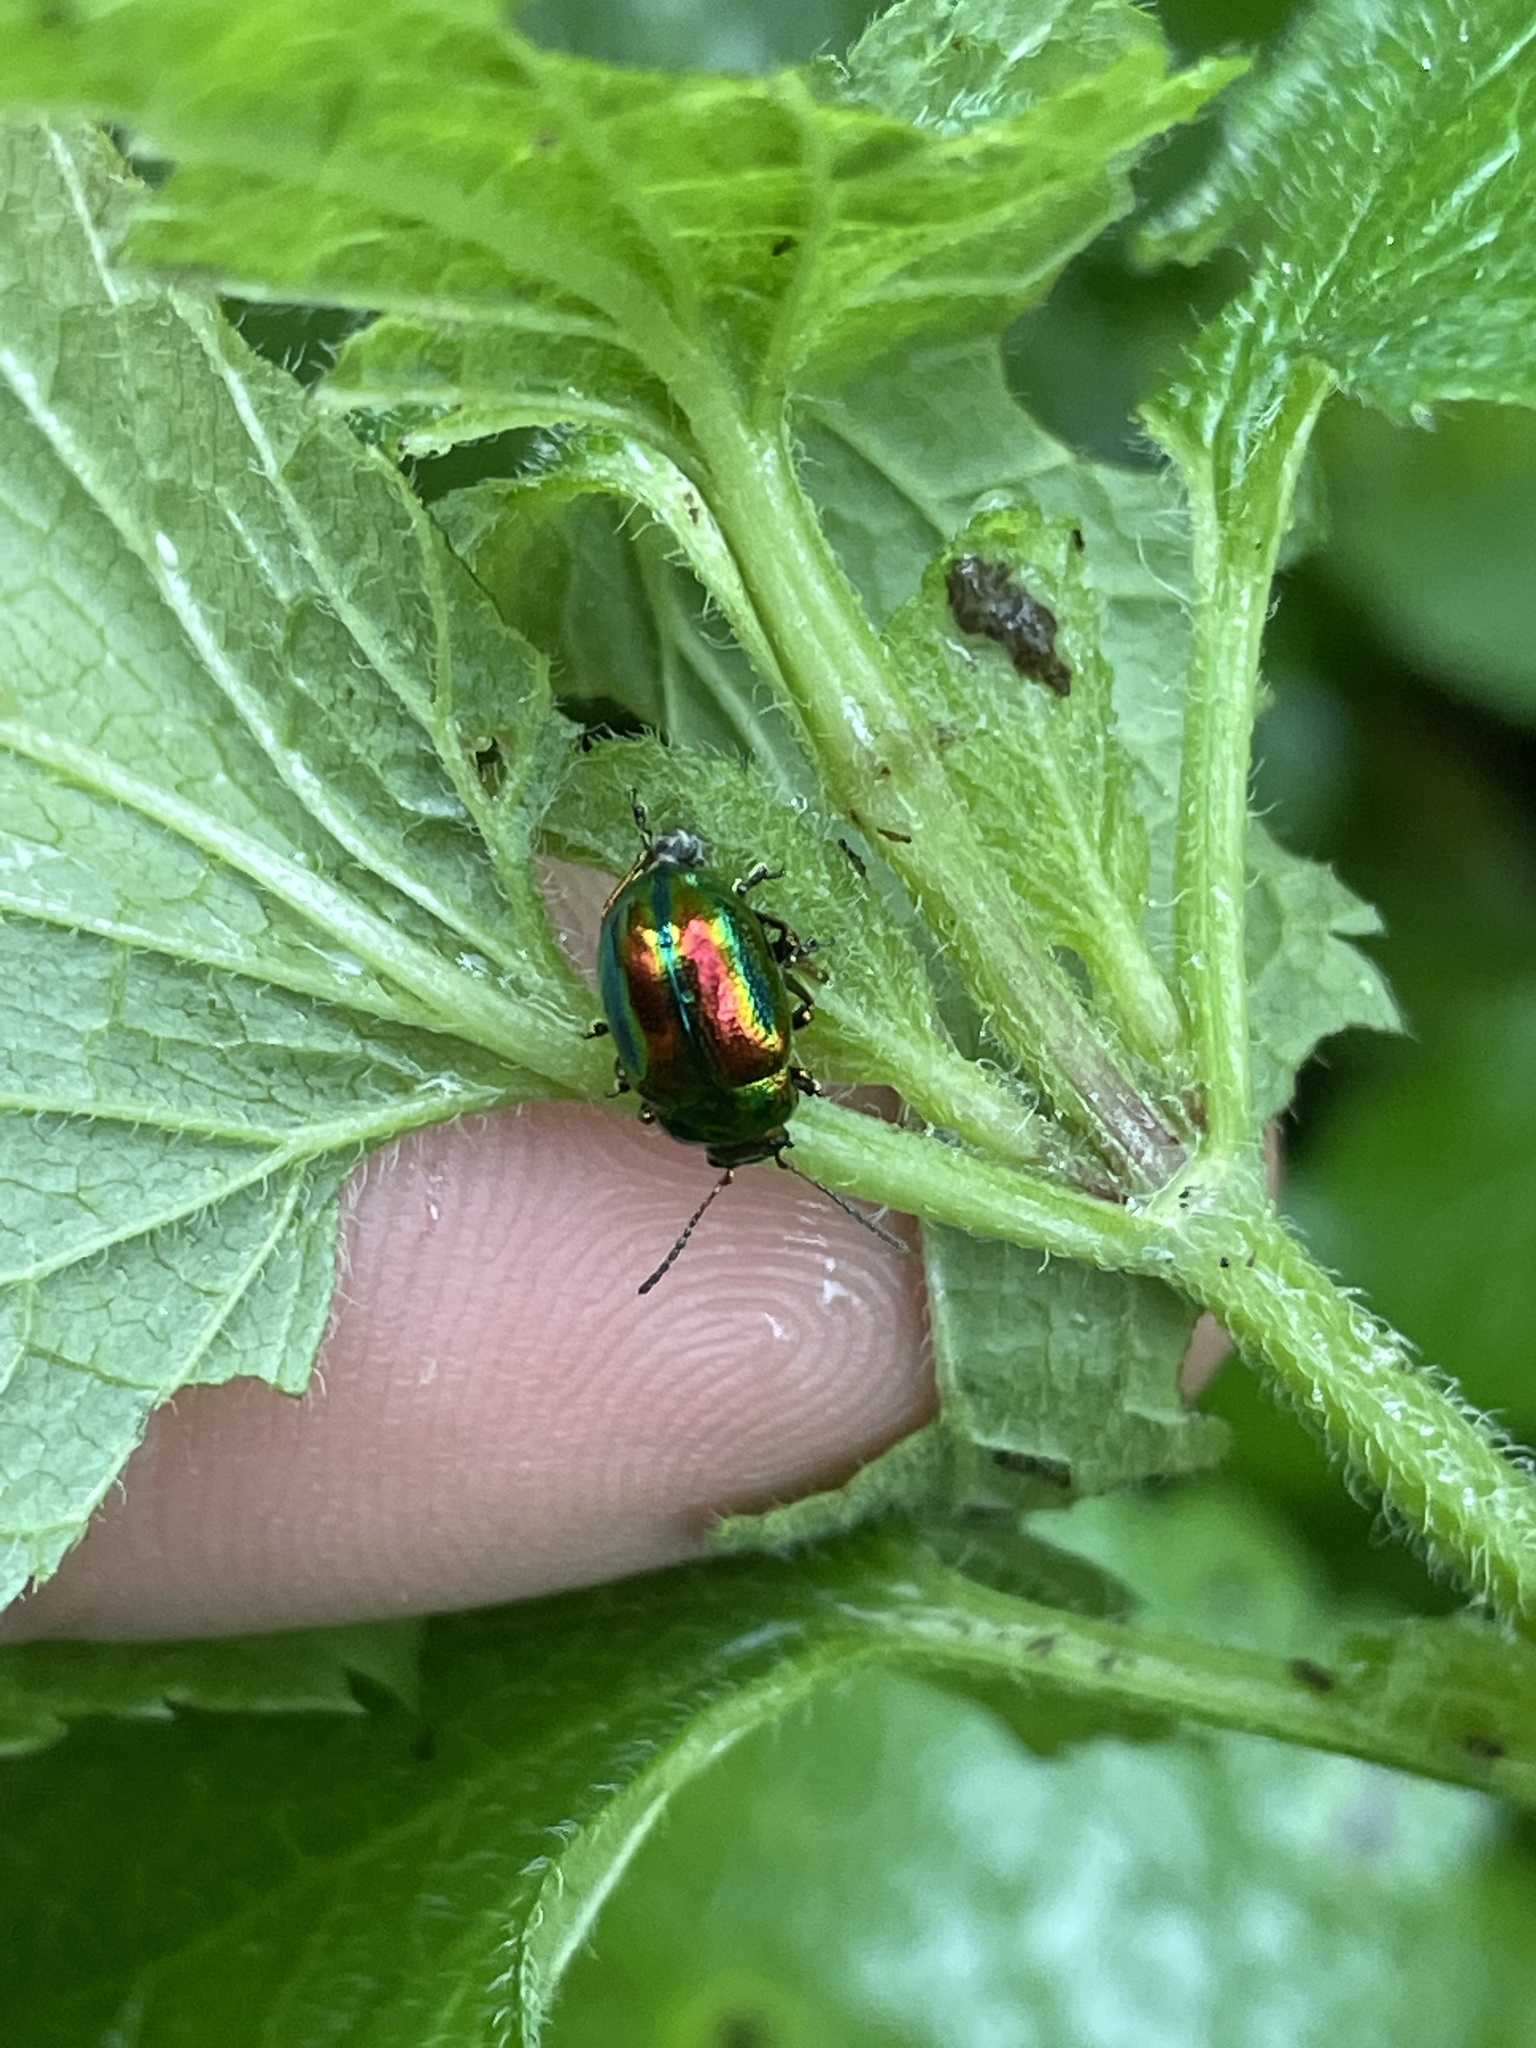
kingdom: Animalia
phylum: Arthropoda
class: Insecta
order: Coleoptera
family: Chrysomelidae
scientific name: Chrysomelidae
